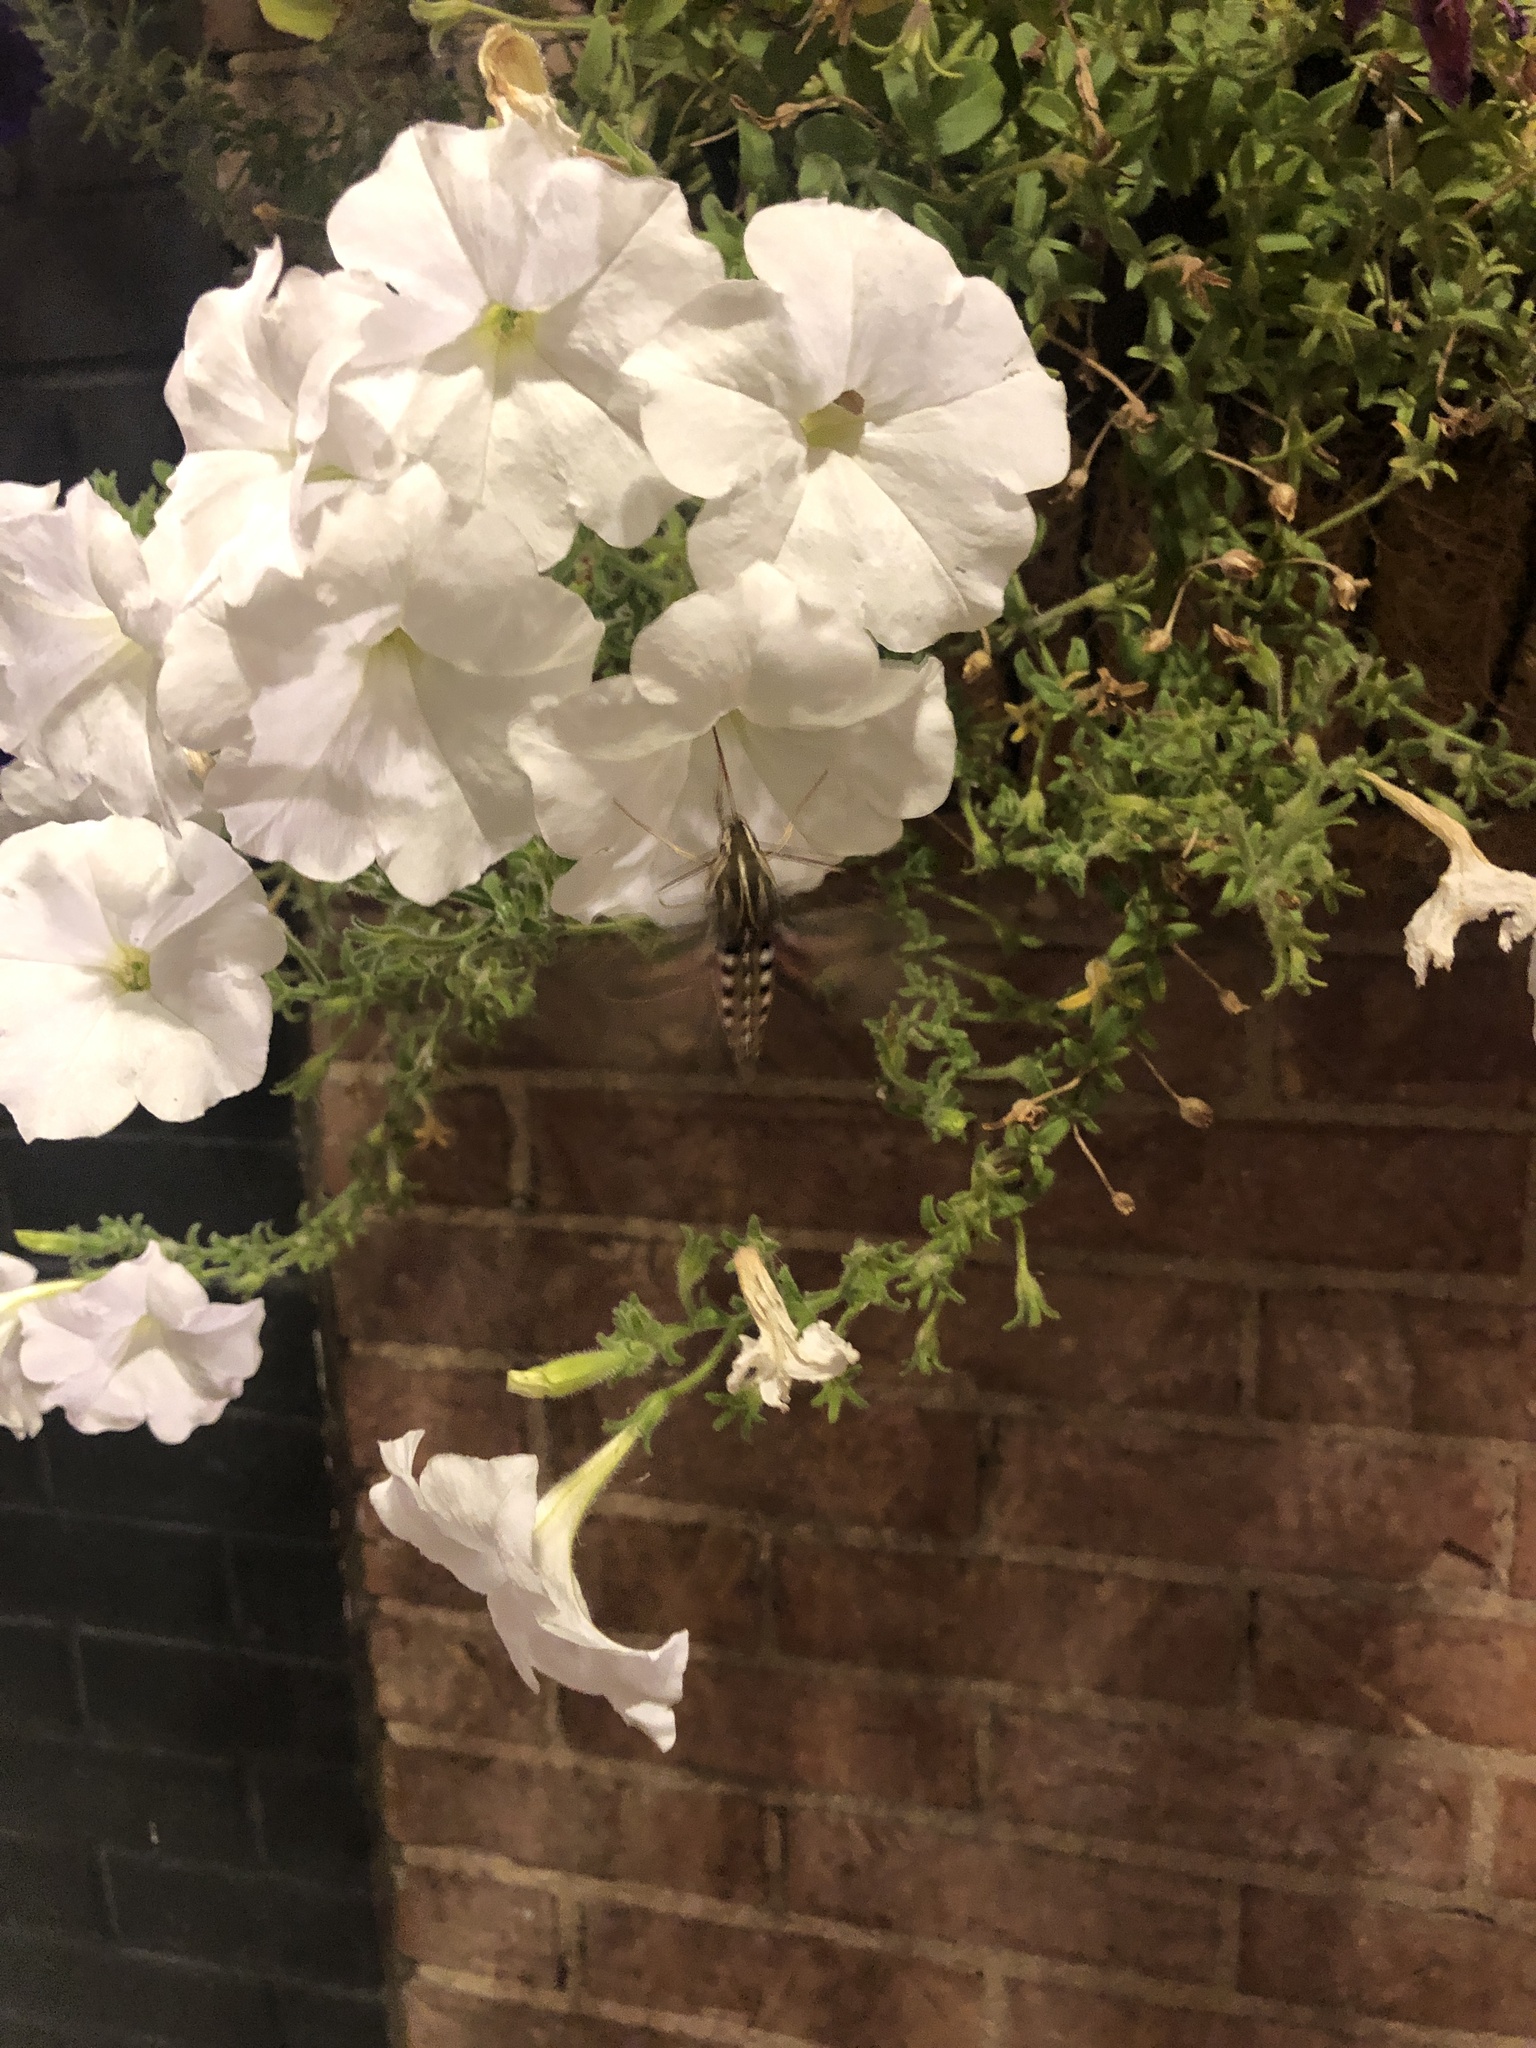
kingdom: Animalia
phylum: Arthropoda
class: Insecta
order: Lepidoptera
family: Sphingidae
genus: Hyles
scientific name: Hyles lineata
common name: White-lined sphinx
